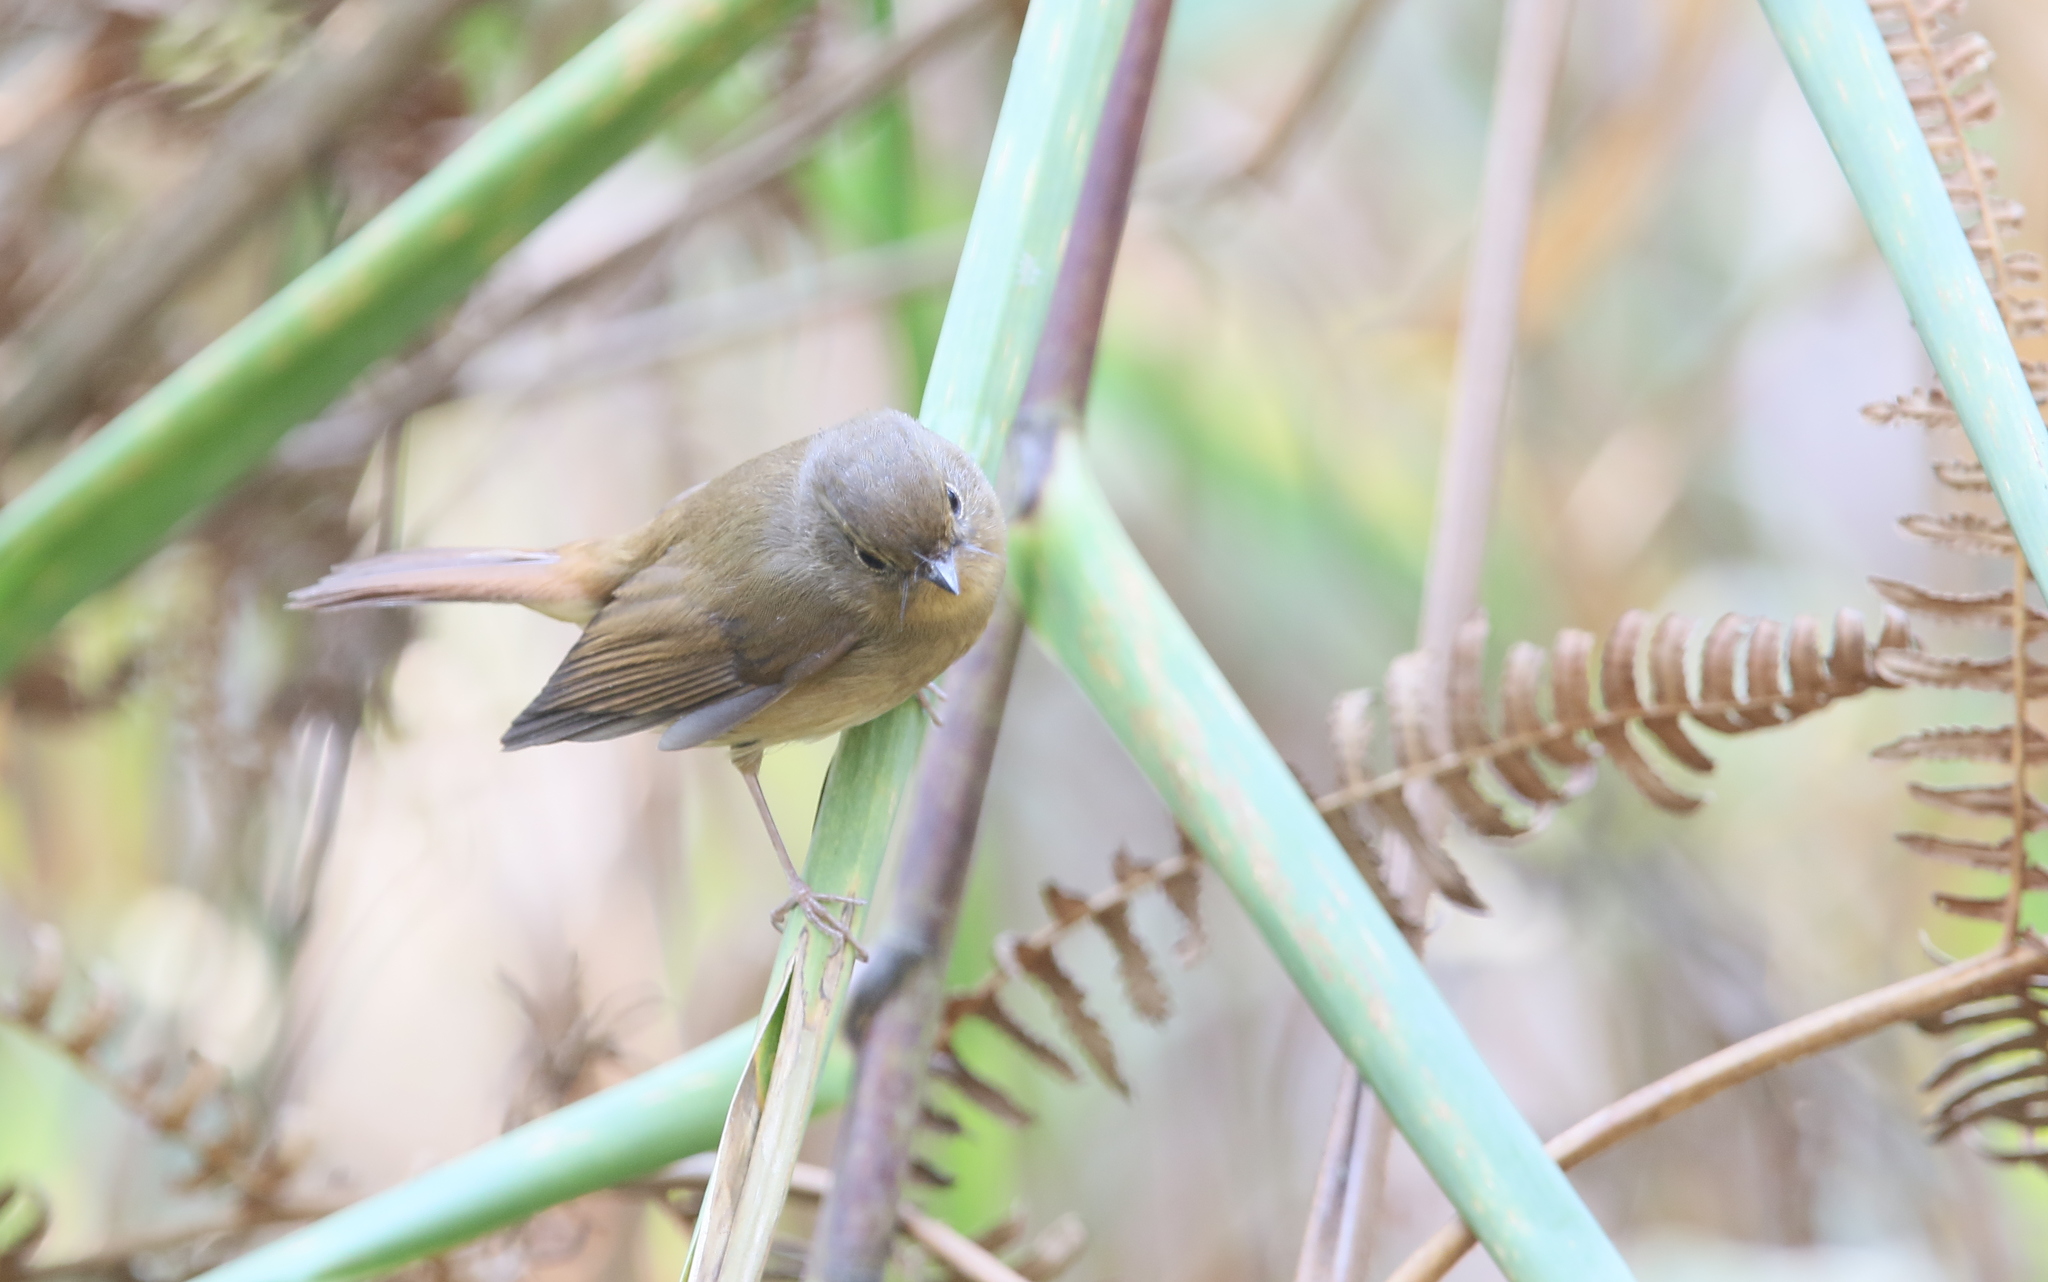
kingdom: Animalia
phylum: Chordata
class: Aves
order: Passeriformes
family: Muscicapidae
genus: Ficedula
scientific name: Ficedula tricolor
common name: Slaty-blue flycatcher
